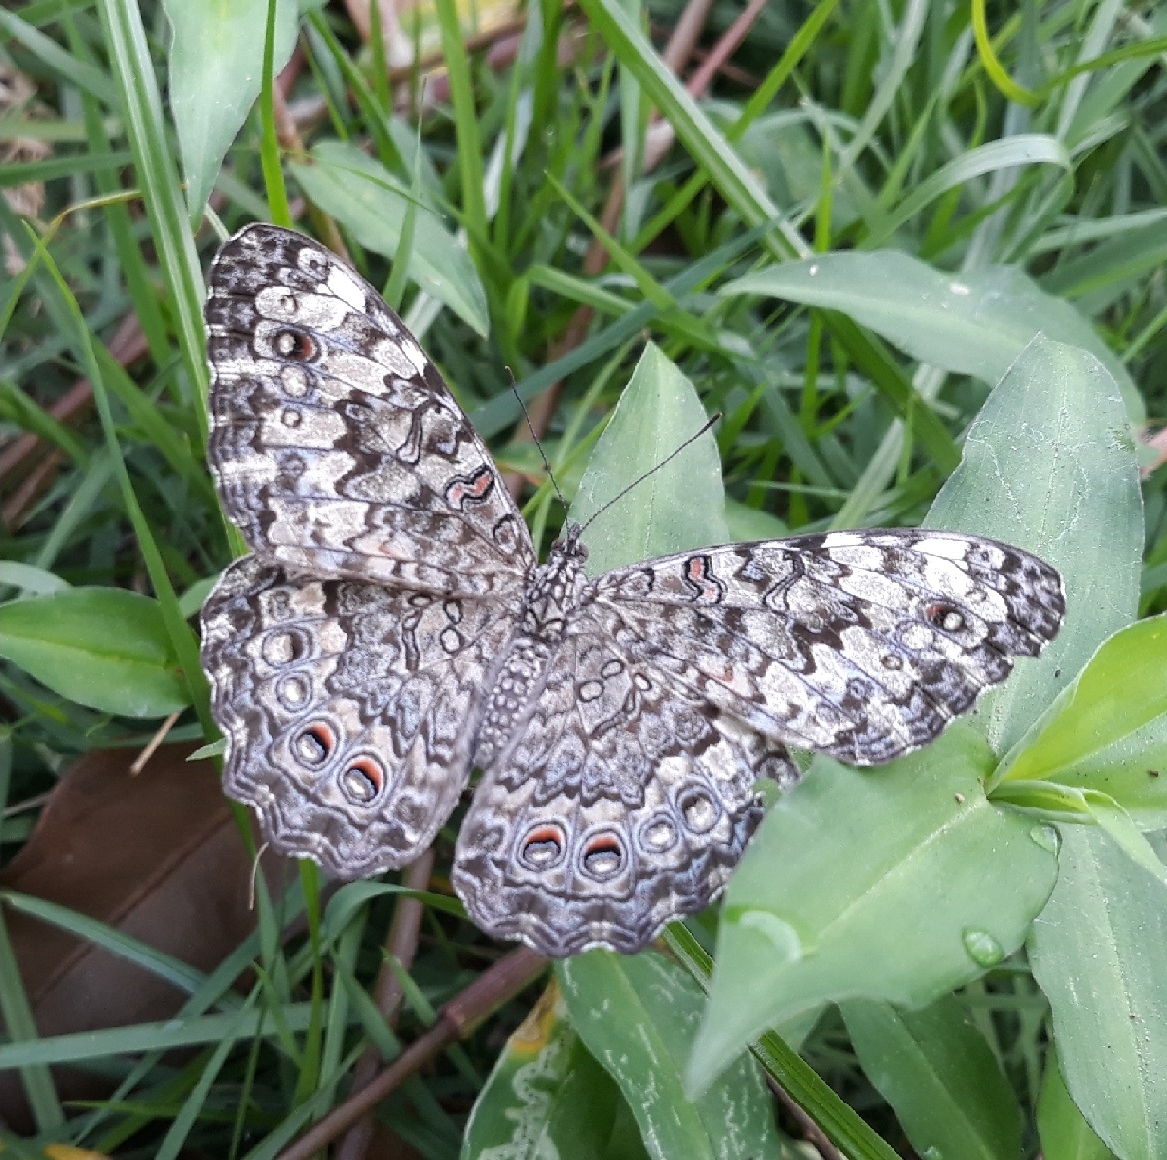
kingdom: Animalia
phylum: Arthropoda
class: Insecta
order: Lepidoptera
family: Nymphalidae
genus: Hamadryas
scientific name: Hamadryas februa
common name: Gray cracker
